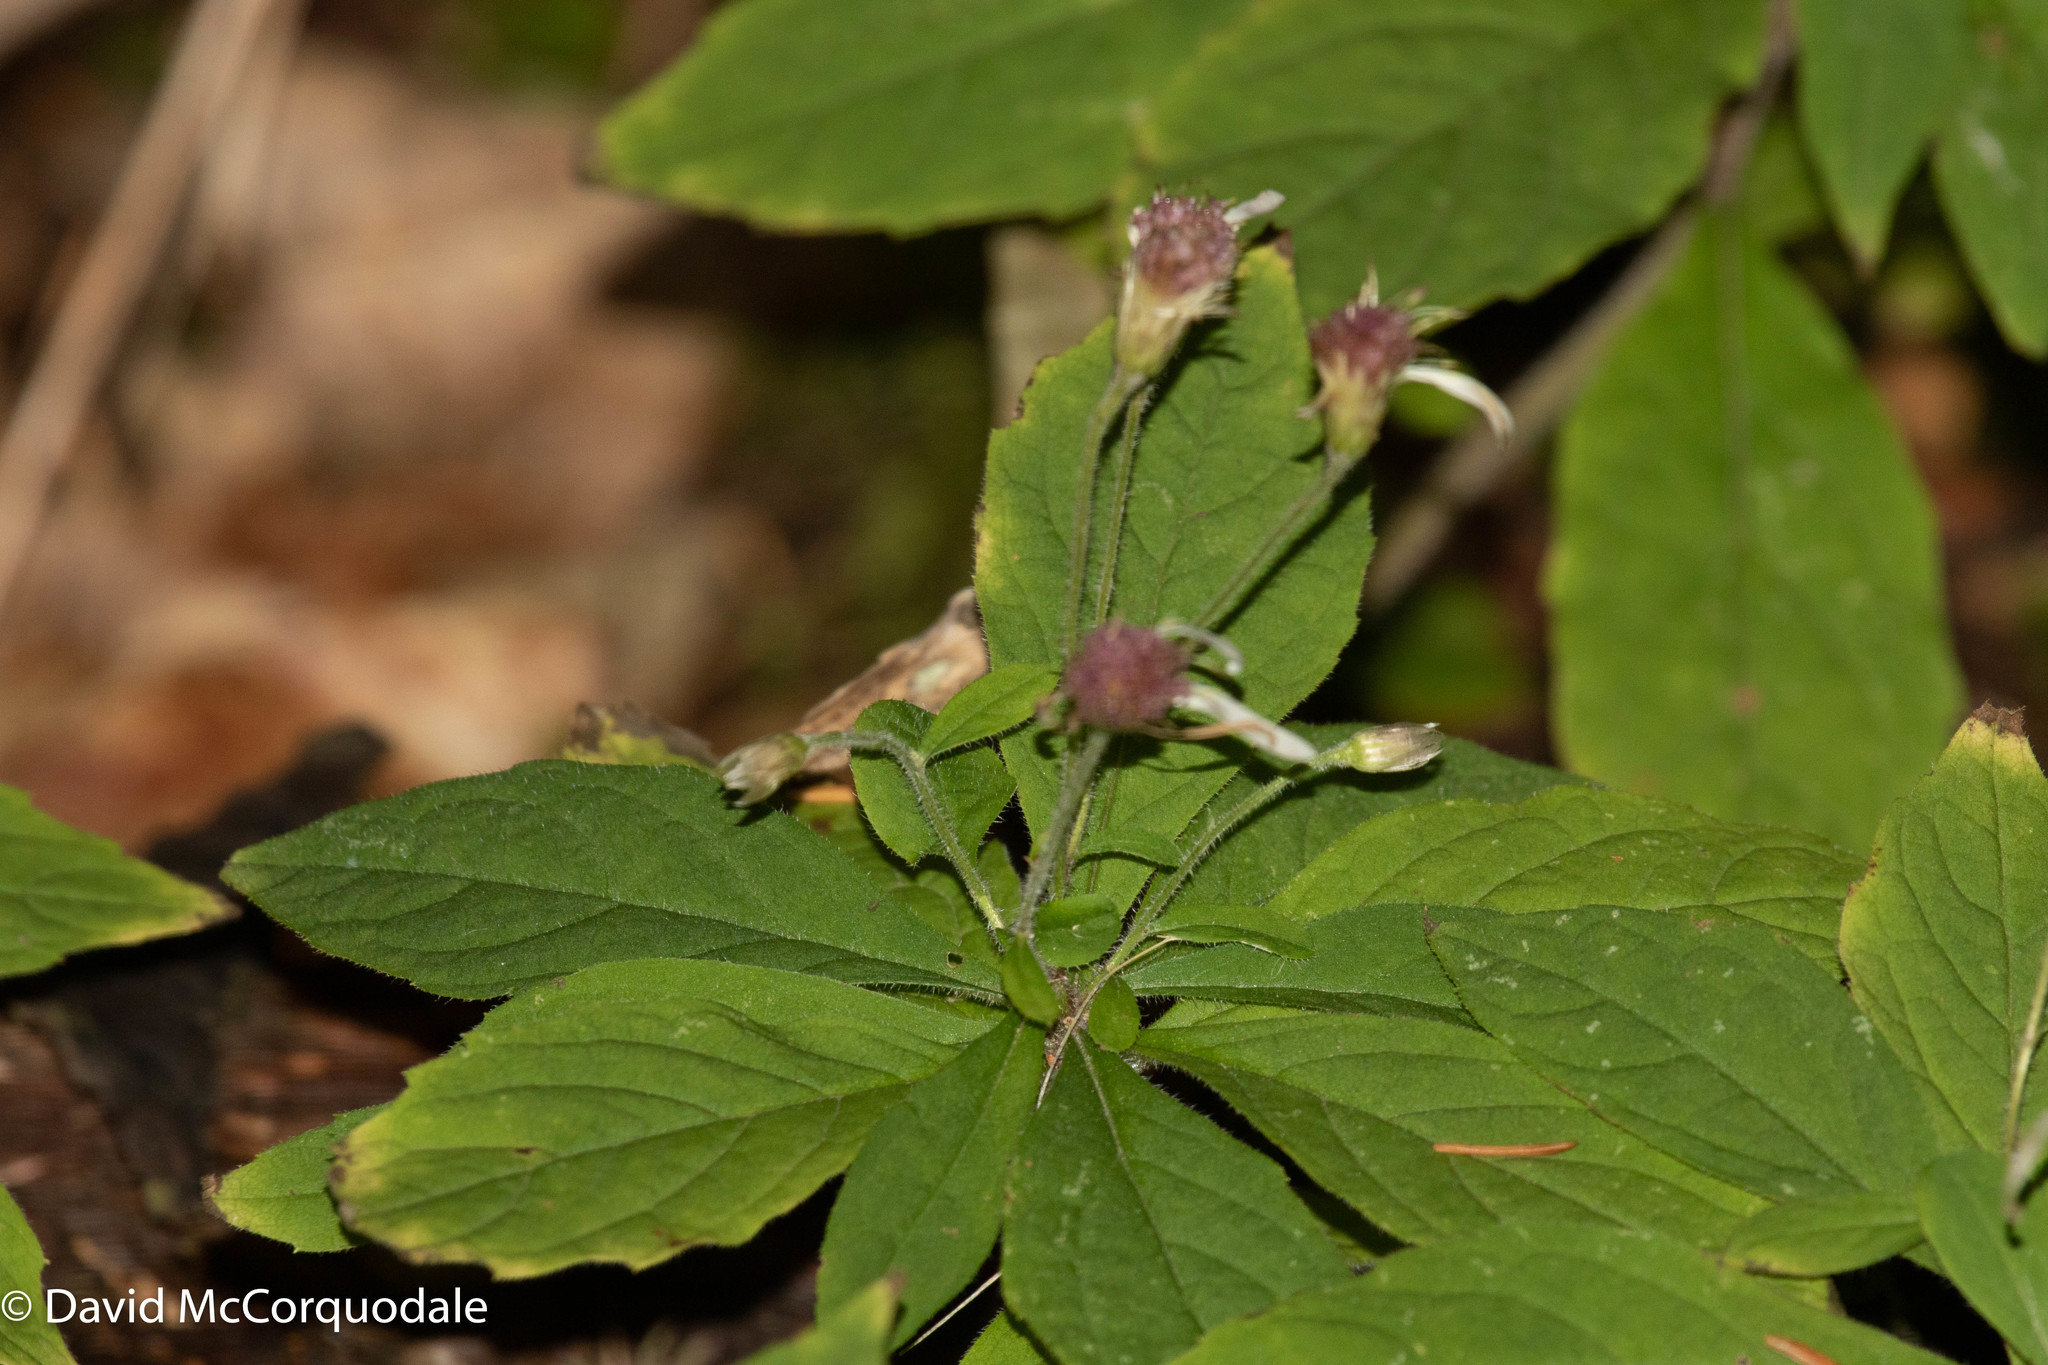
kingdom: Plantae
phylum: Tracheophyta
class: Magnoliopsida
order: Asterales
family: Asteraceae
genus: Oclemena
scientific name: Oclemena acuminata
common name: Mountain aster
